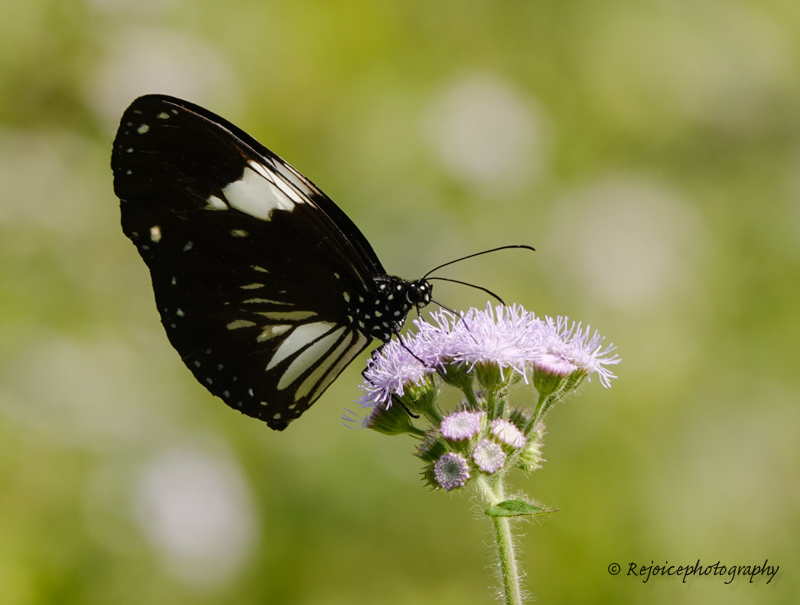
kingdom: Animalia
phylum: Arthropoda
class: Insecta
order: Lepidoptera
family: Nymphalidae
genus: Euploea
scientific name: Euploea radamanthus
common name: Magpie crow butterfly
